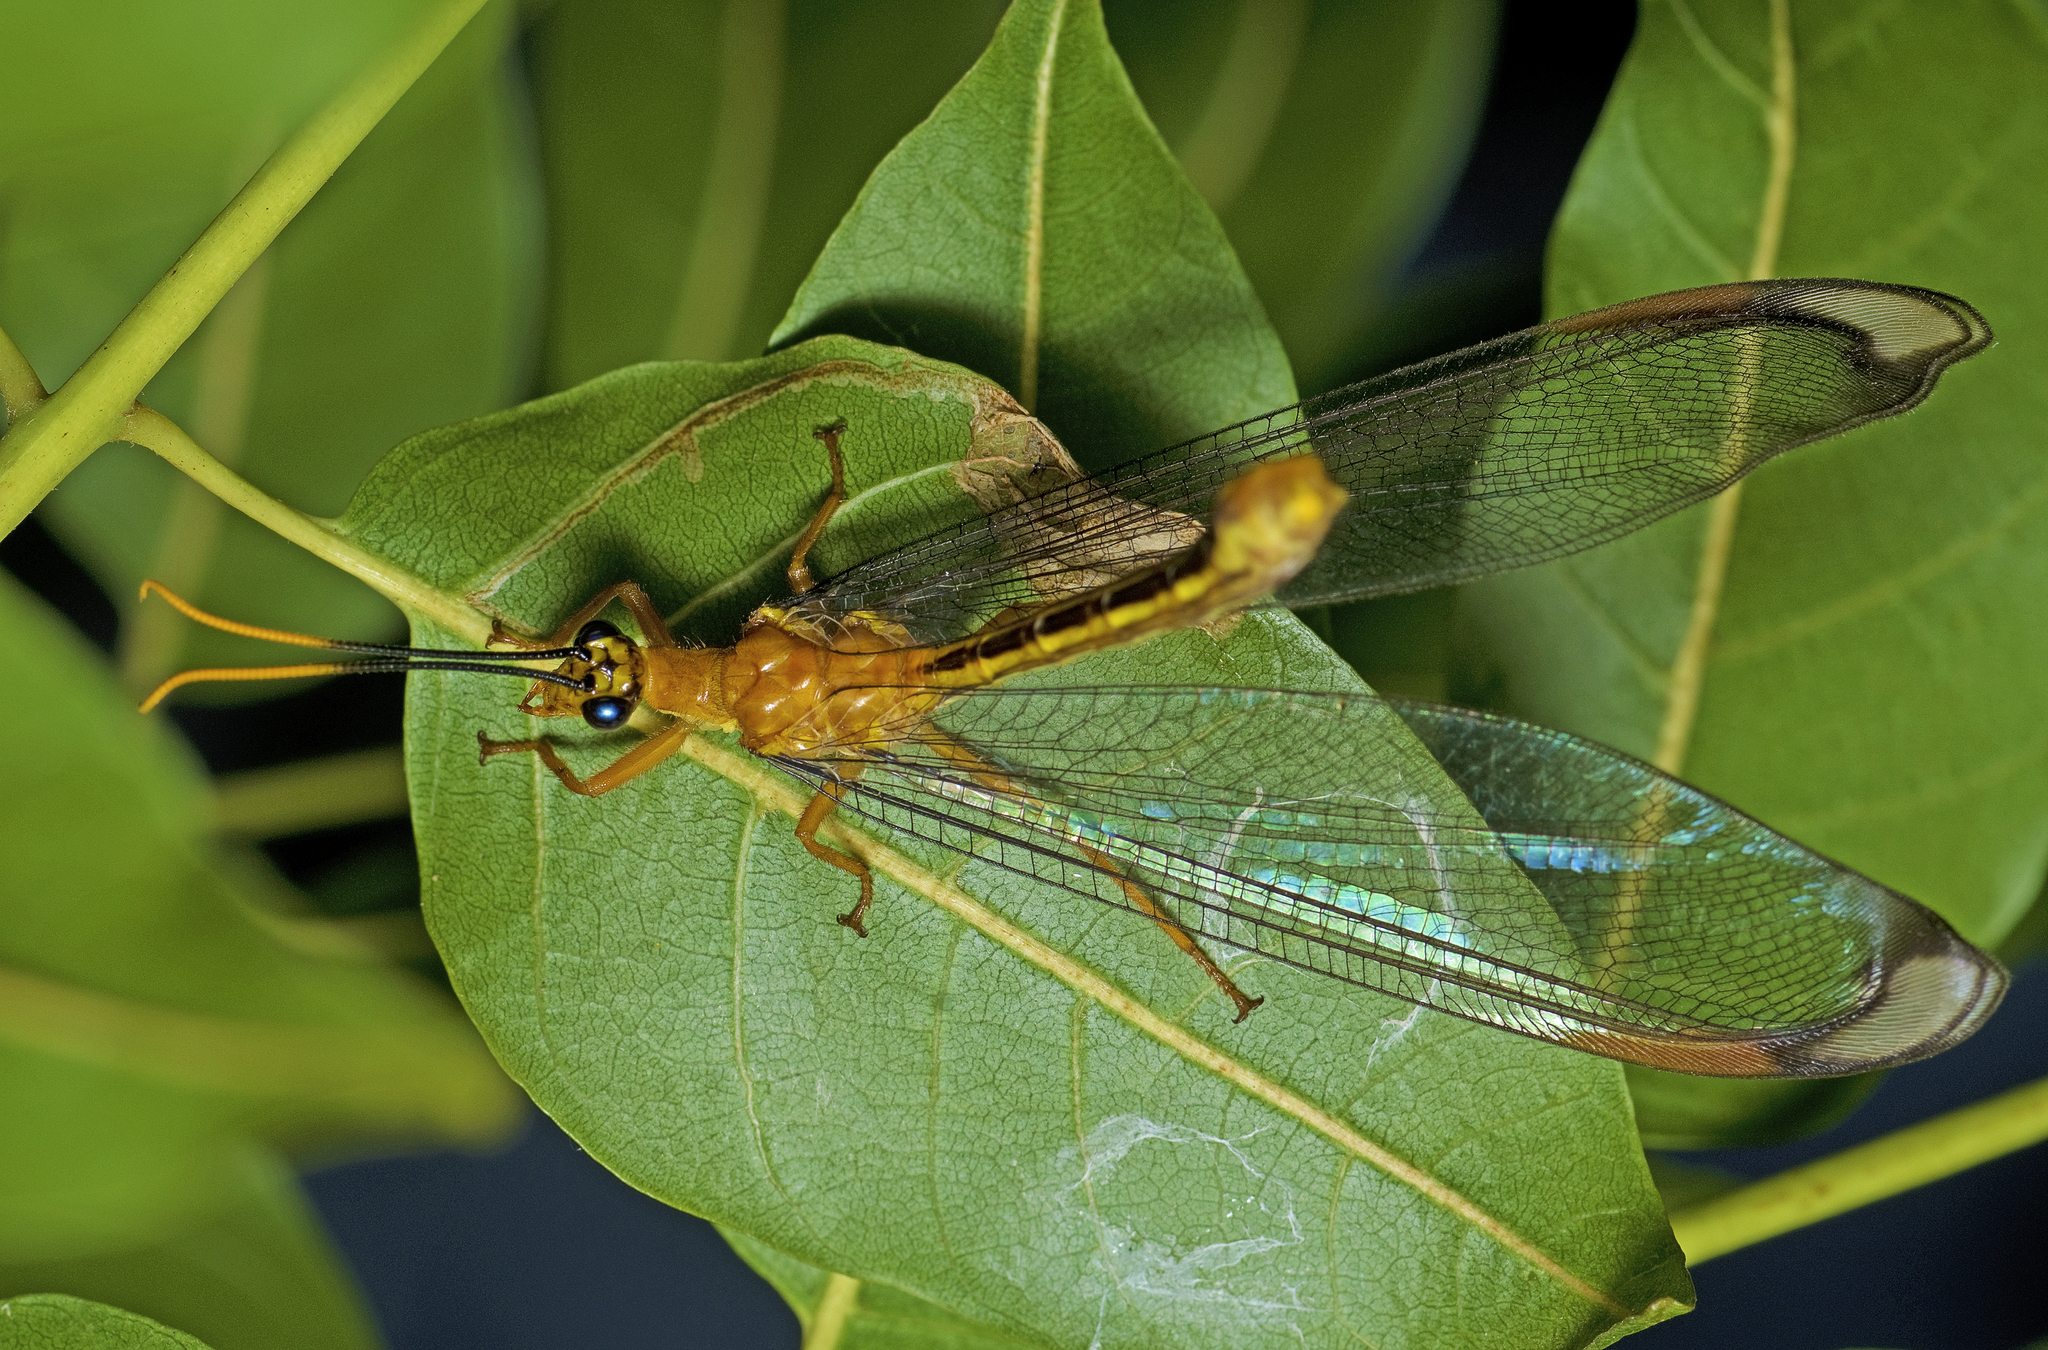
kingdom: Animalia
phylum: Arthropoda
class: Insecta
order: Neuroptera
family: Nymphidae
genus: Nymphes
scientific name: Nymphes myrmeleonoides
